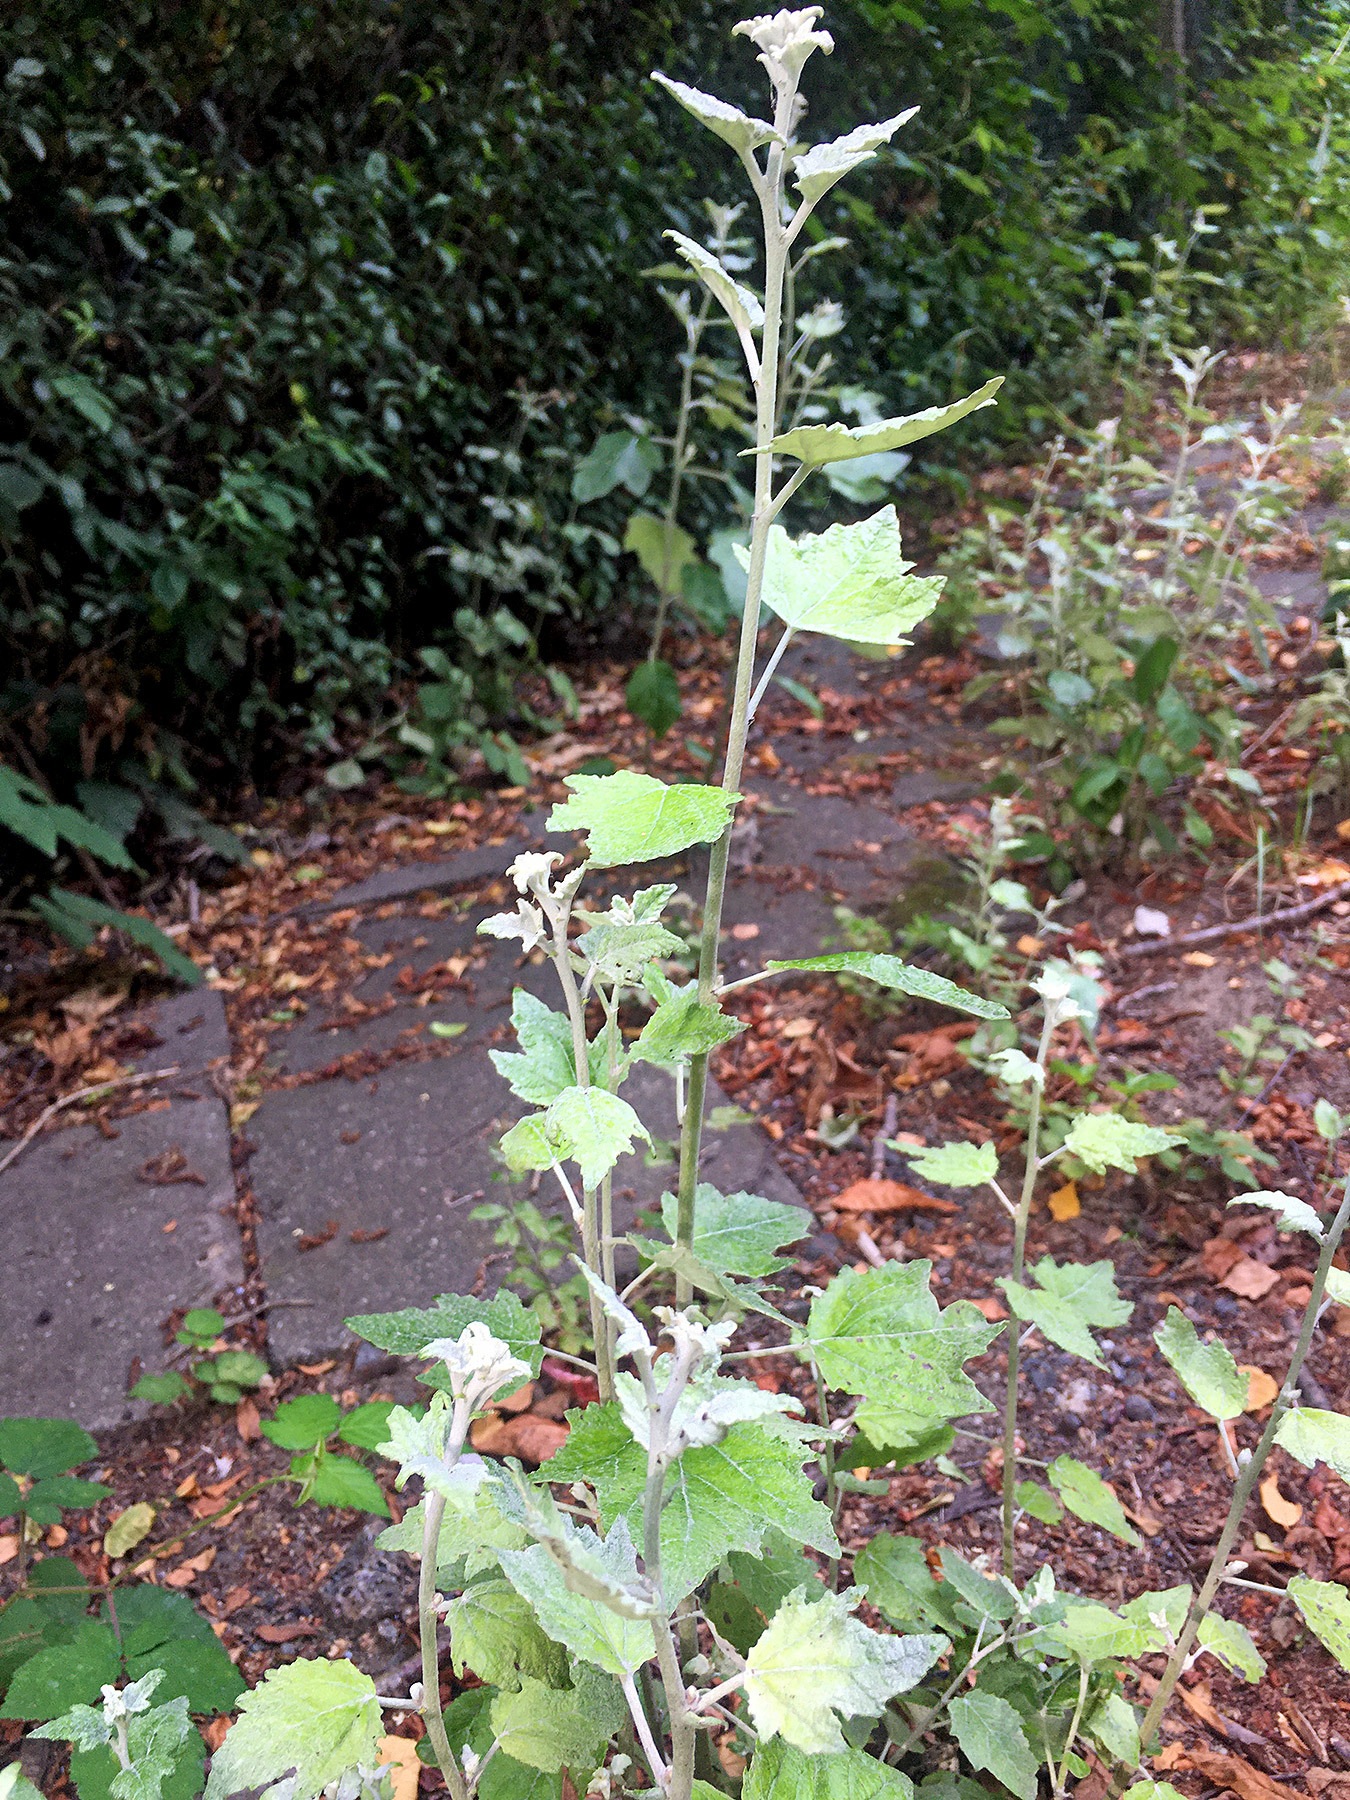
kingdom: Plantae
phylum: Tracheophyta
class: Magnoliopsida
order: Malpighiales
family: Salicaceae
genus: Populus
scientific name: Populus alba
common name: White poplar
